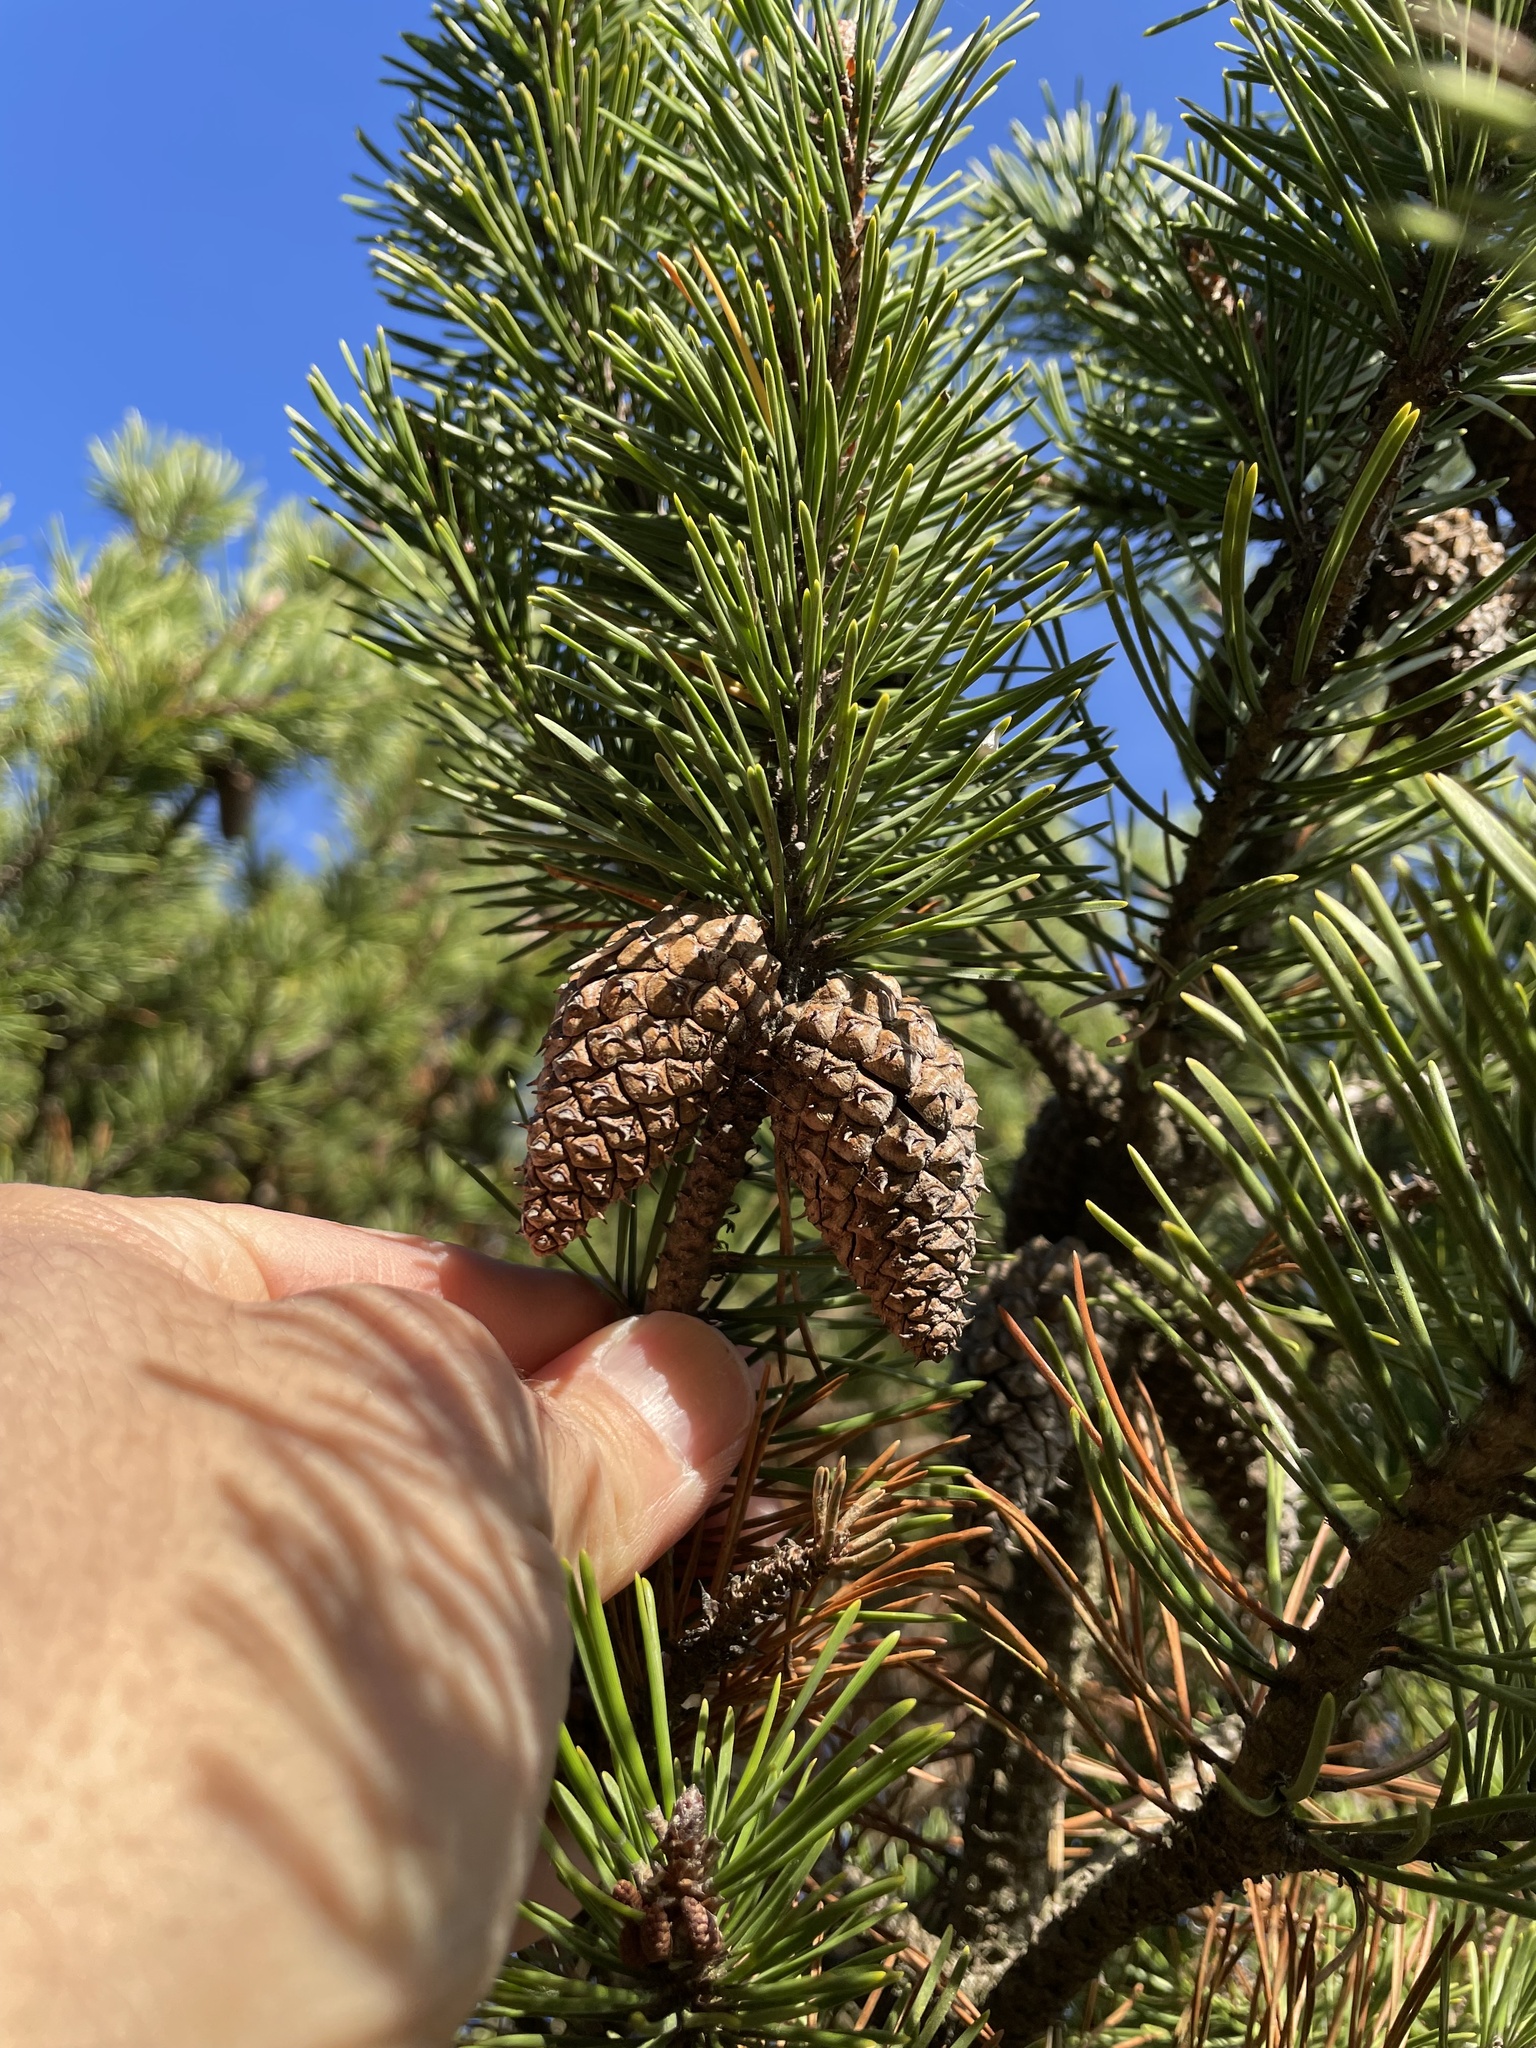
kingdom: Plantae
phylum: Tracheophyta
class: Pinopsida
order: Pinales
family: Pinaceae
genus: Pinus
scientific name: Pinus contorta
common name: Lodgepole pine
